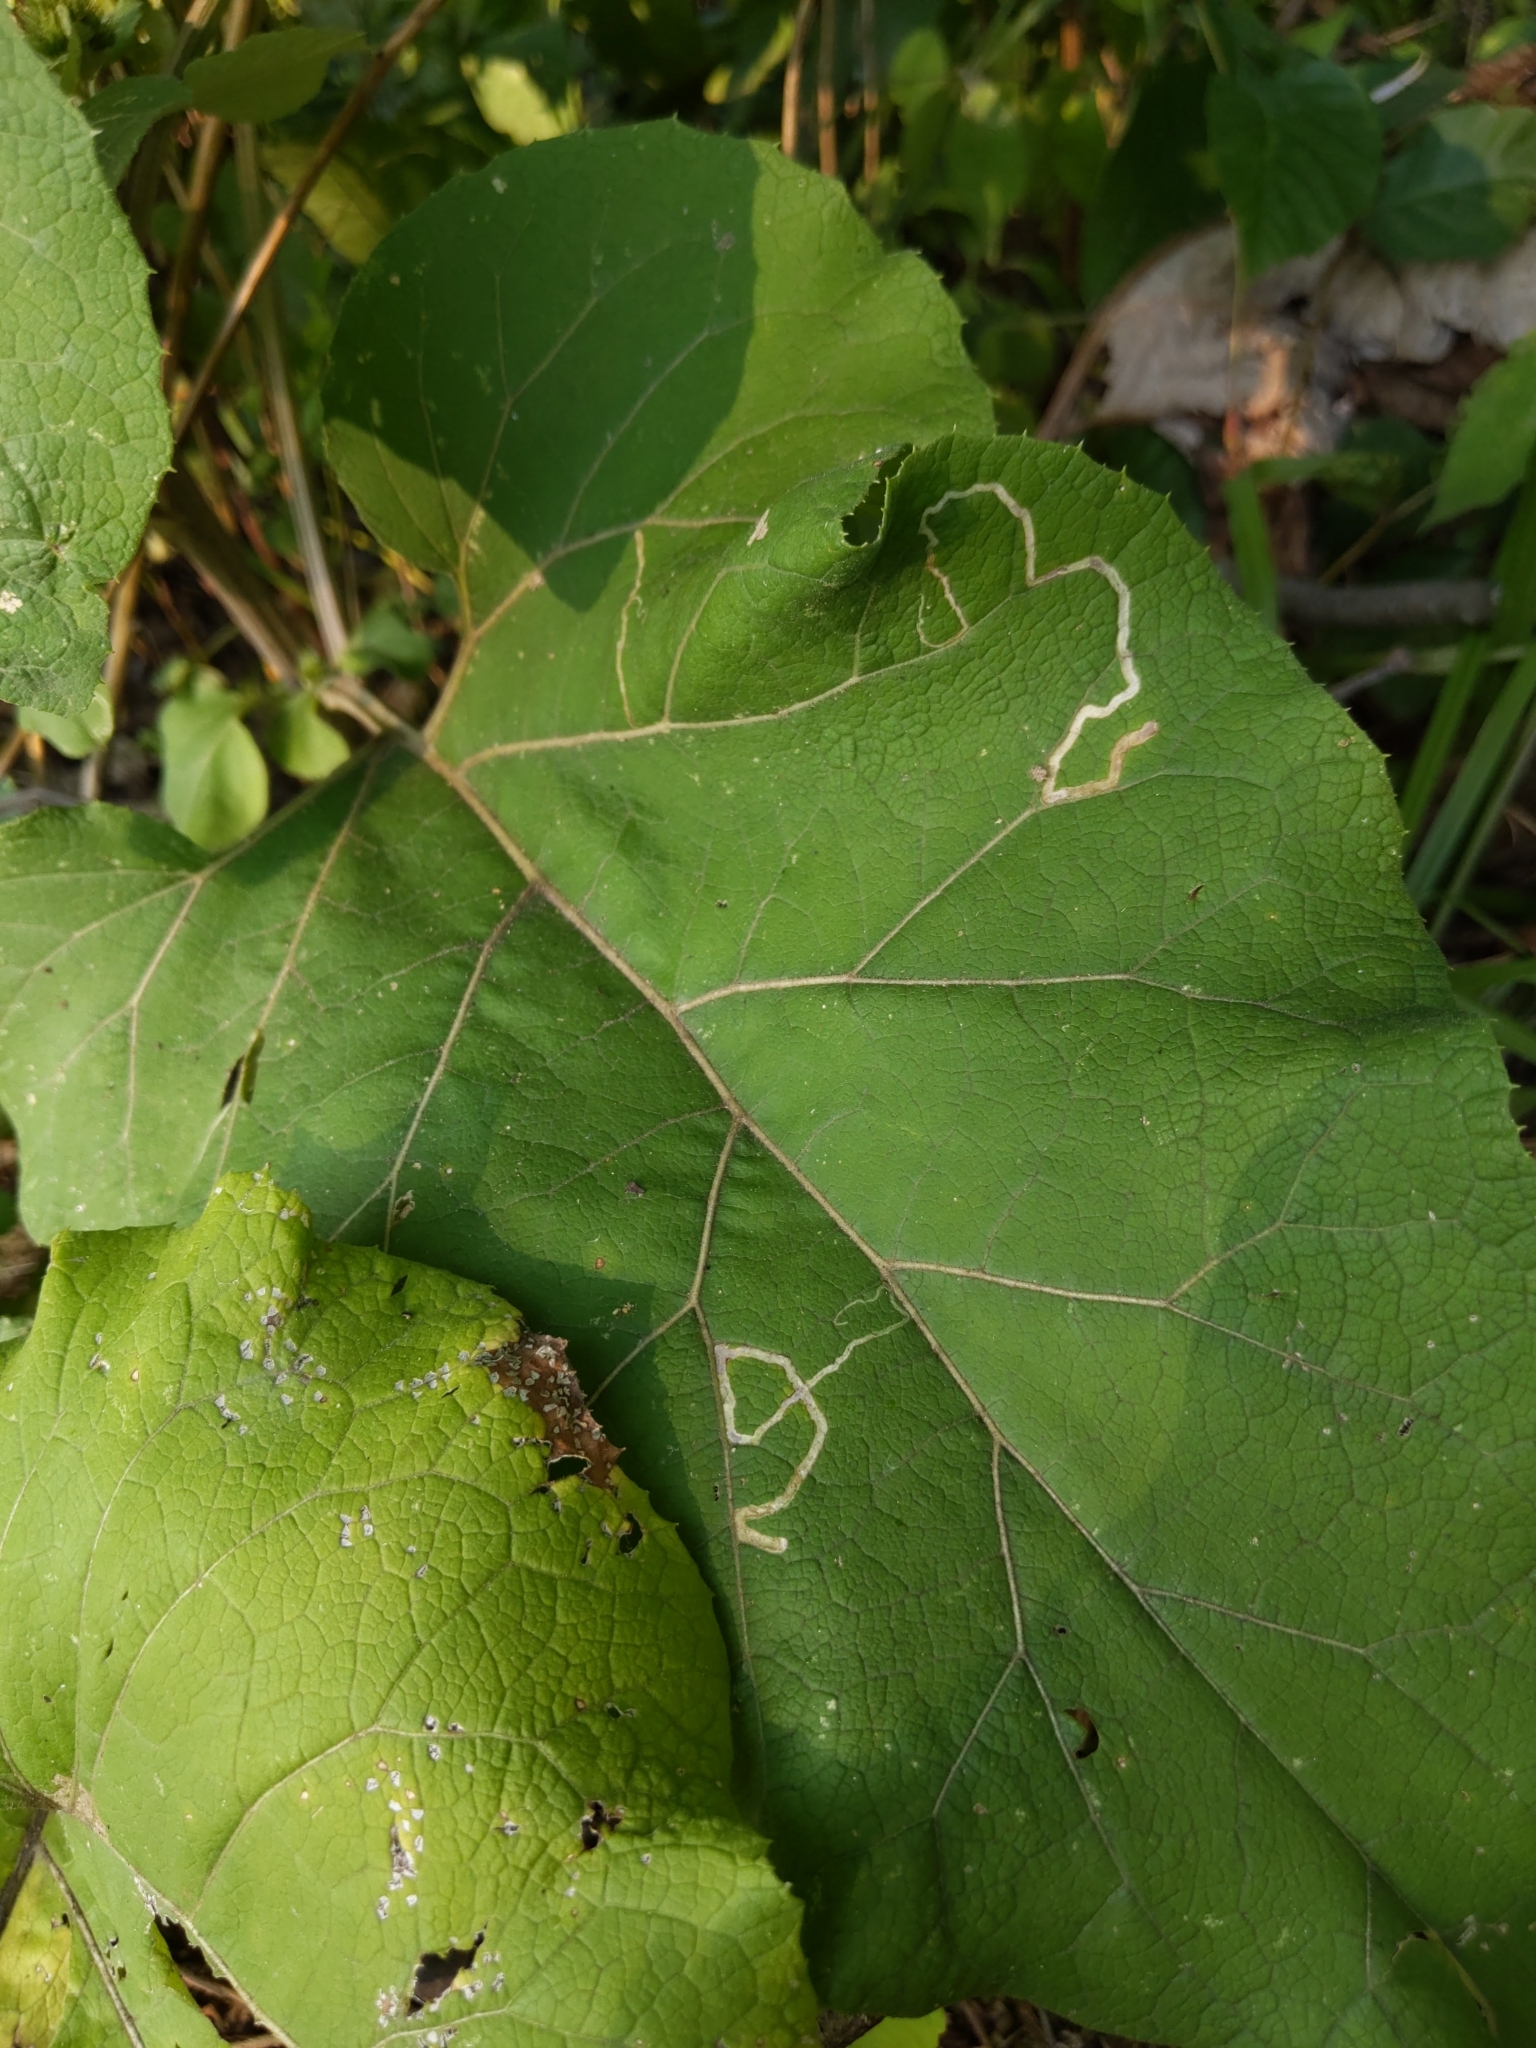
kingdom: Animalia
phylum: Arthropoda
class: Insecta
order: Diptera
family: Agromyzidae
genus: Liriomyza
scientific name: Liriomyza arctii
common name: Burdock leafminer
